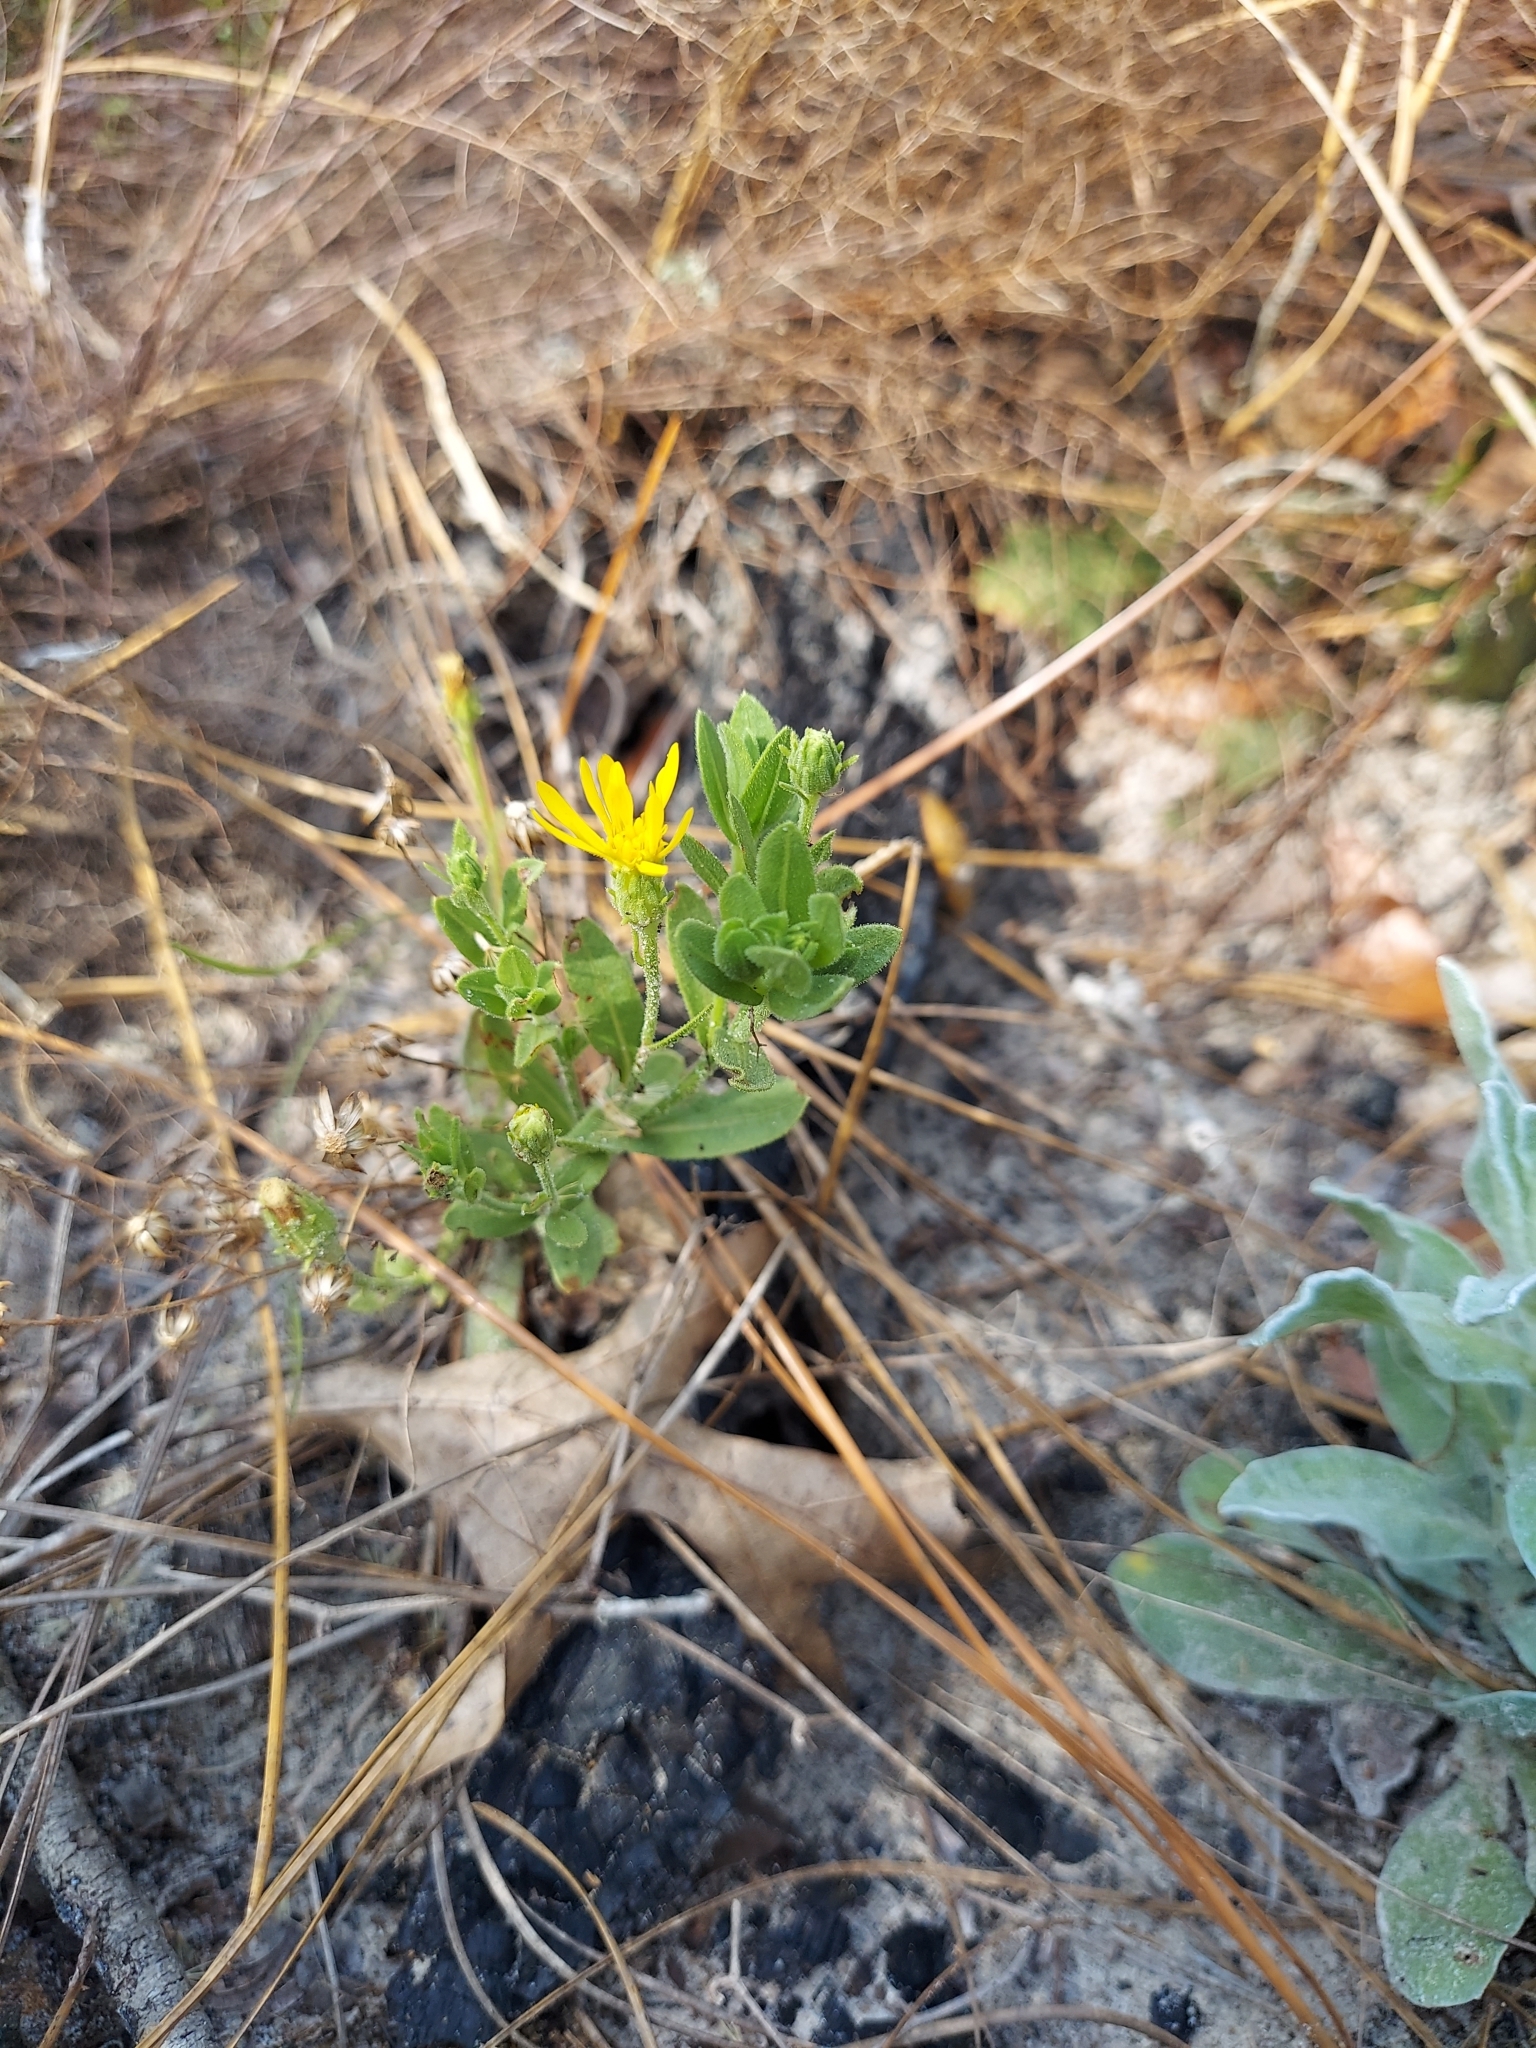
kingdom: Plantae
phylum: Tracheophyta
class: Magnoliopsida
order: Asterales
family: Asteraceae
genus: Chrysopsis
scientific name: Chrysopsis scabrella
